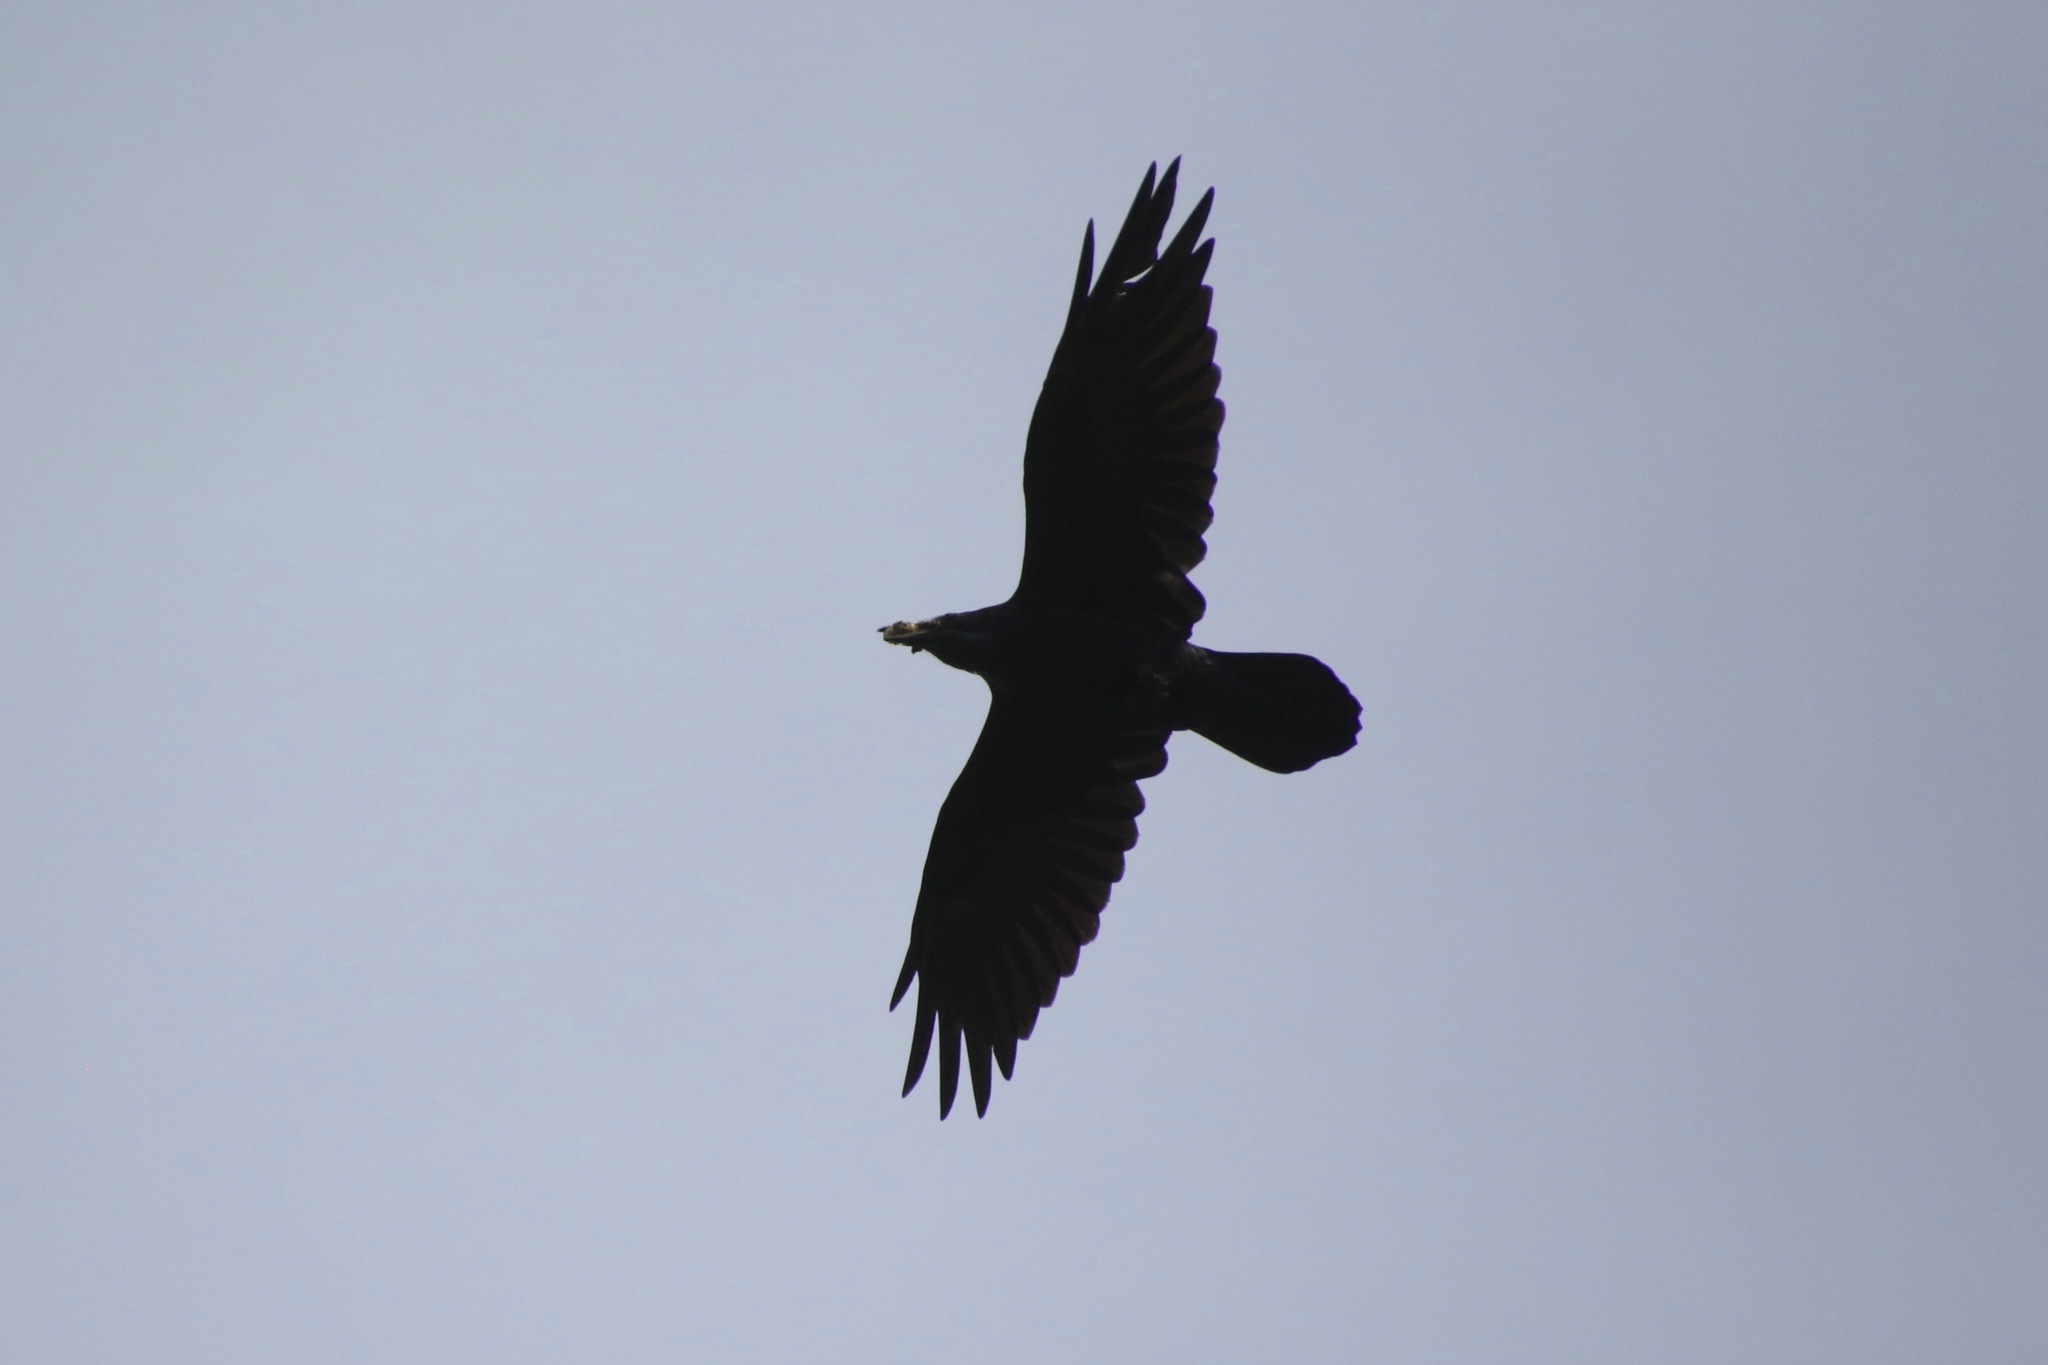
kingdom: Animalia
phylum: Chordata
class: Aves
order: Passeriformes
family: Corvidae
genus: Corvus
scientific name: Corvus corax
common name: Common raven
